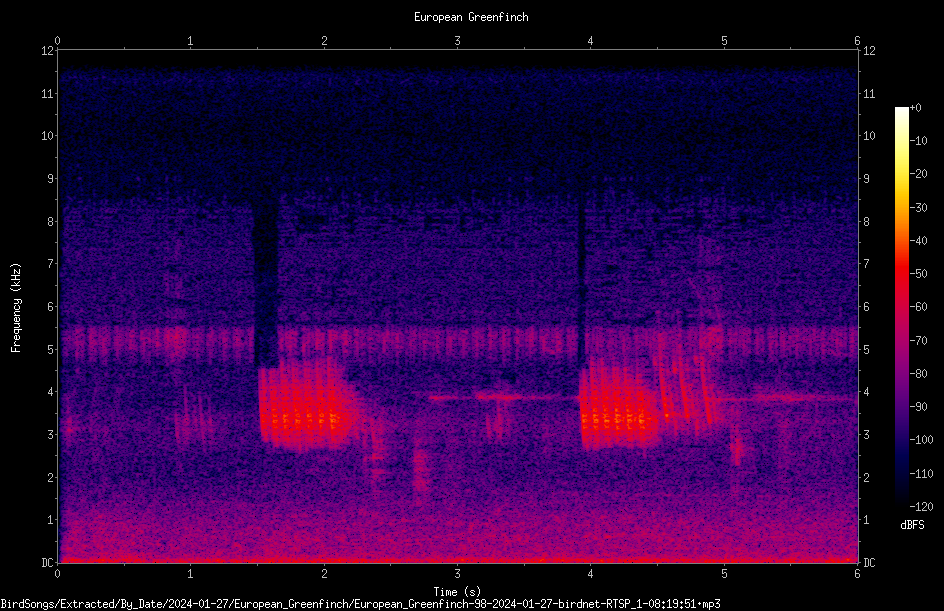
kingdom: Plantae
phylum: Tracheophyta
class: Liliopsida
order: Poales
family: Poaceae
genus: Chloris
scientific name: Chloris chloris
